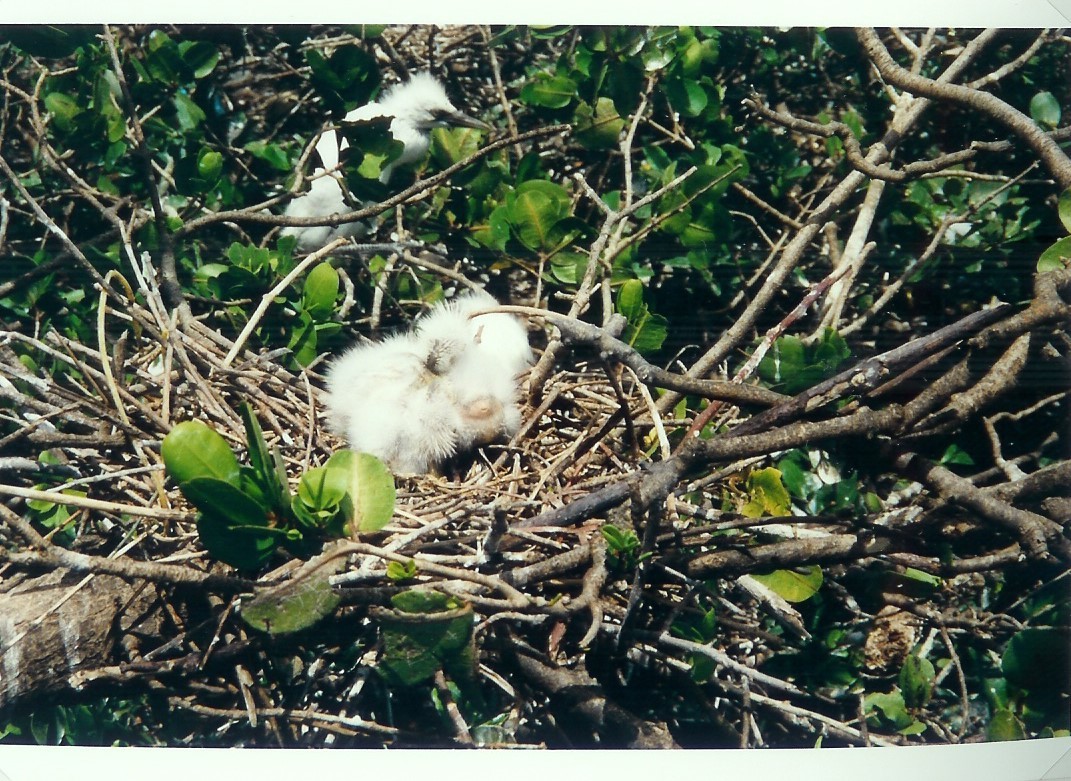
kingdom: Animalia
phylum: Chordata
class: Aves
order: Pelecaniformes
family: Ardeidae
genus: Bubulcus
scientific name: Bubulcus ibis
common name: Cattle egret
